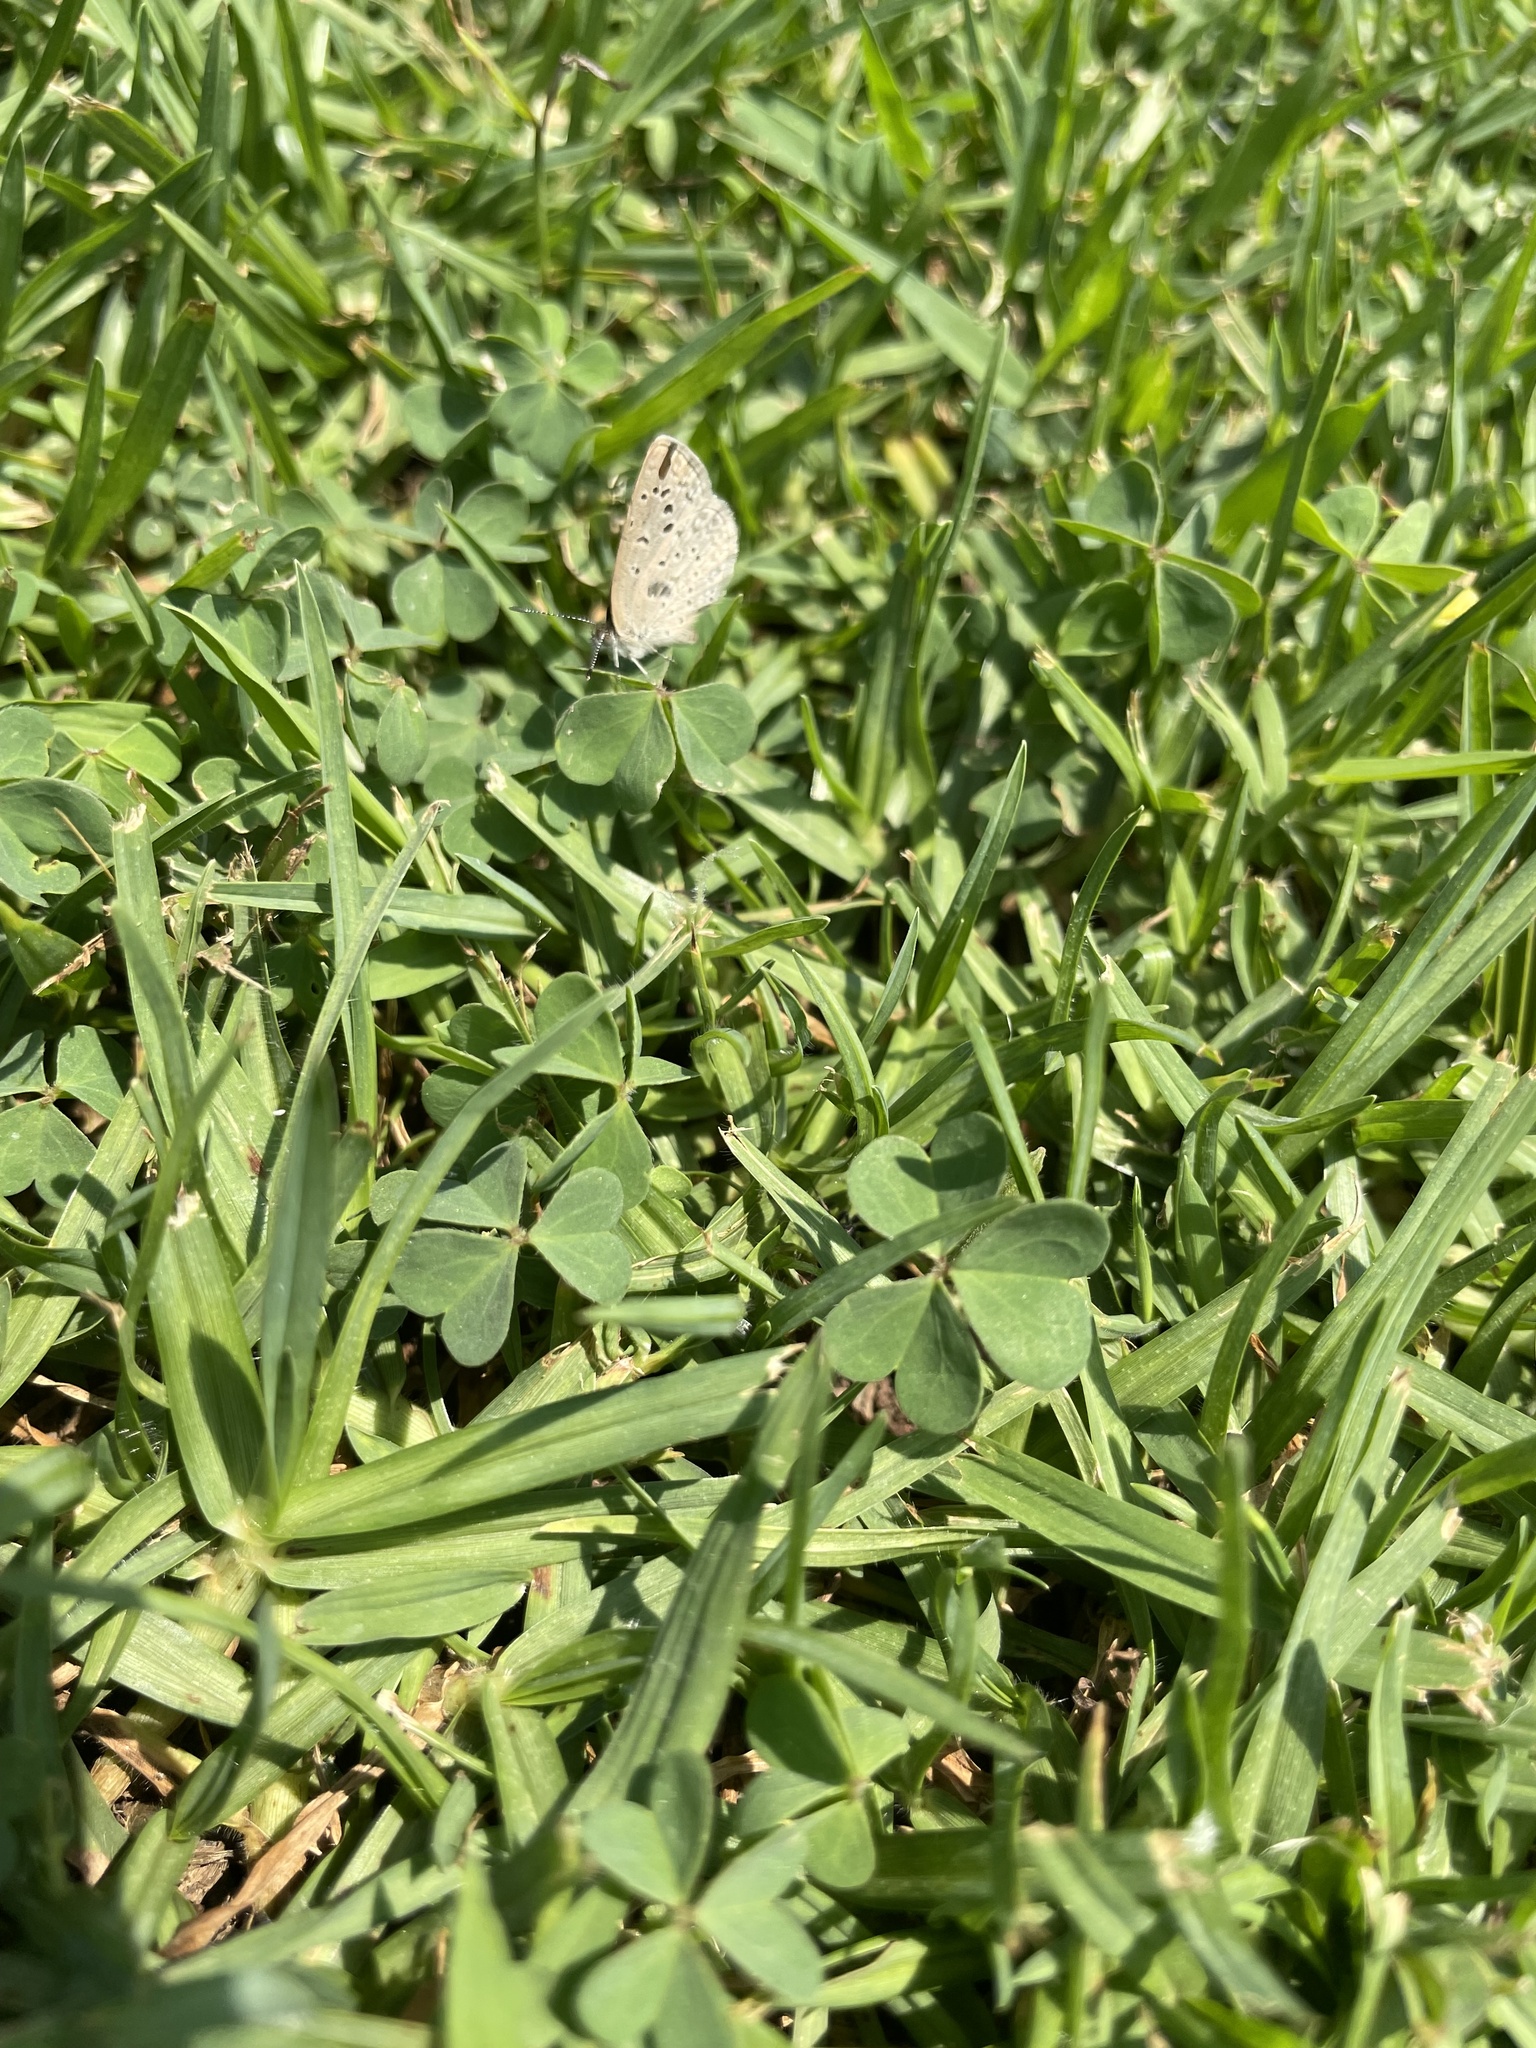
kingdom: Animalia
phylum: Arthropoda
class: Insecta
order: Lepidoptera
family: Lycaenidae
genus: Zizeeria
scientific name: Zizeeria knysna
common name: African grass blue
